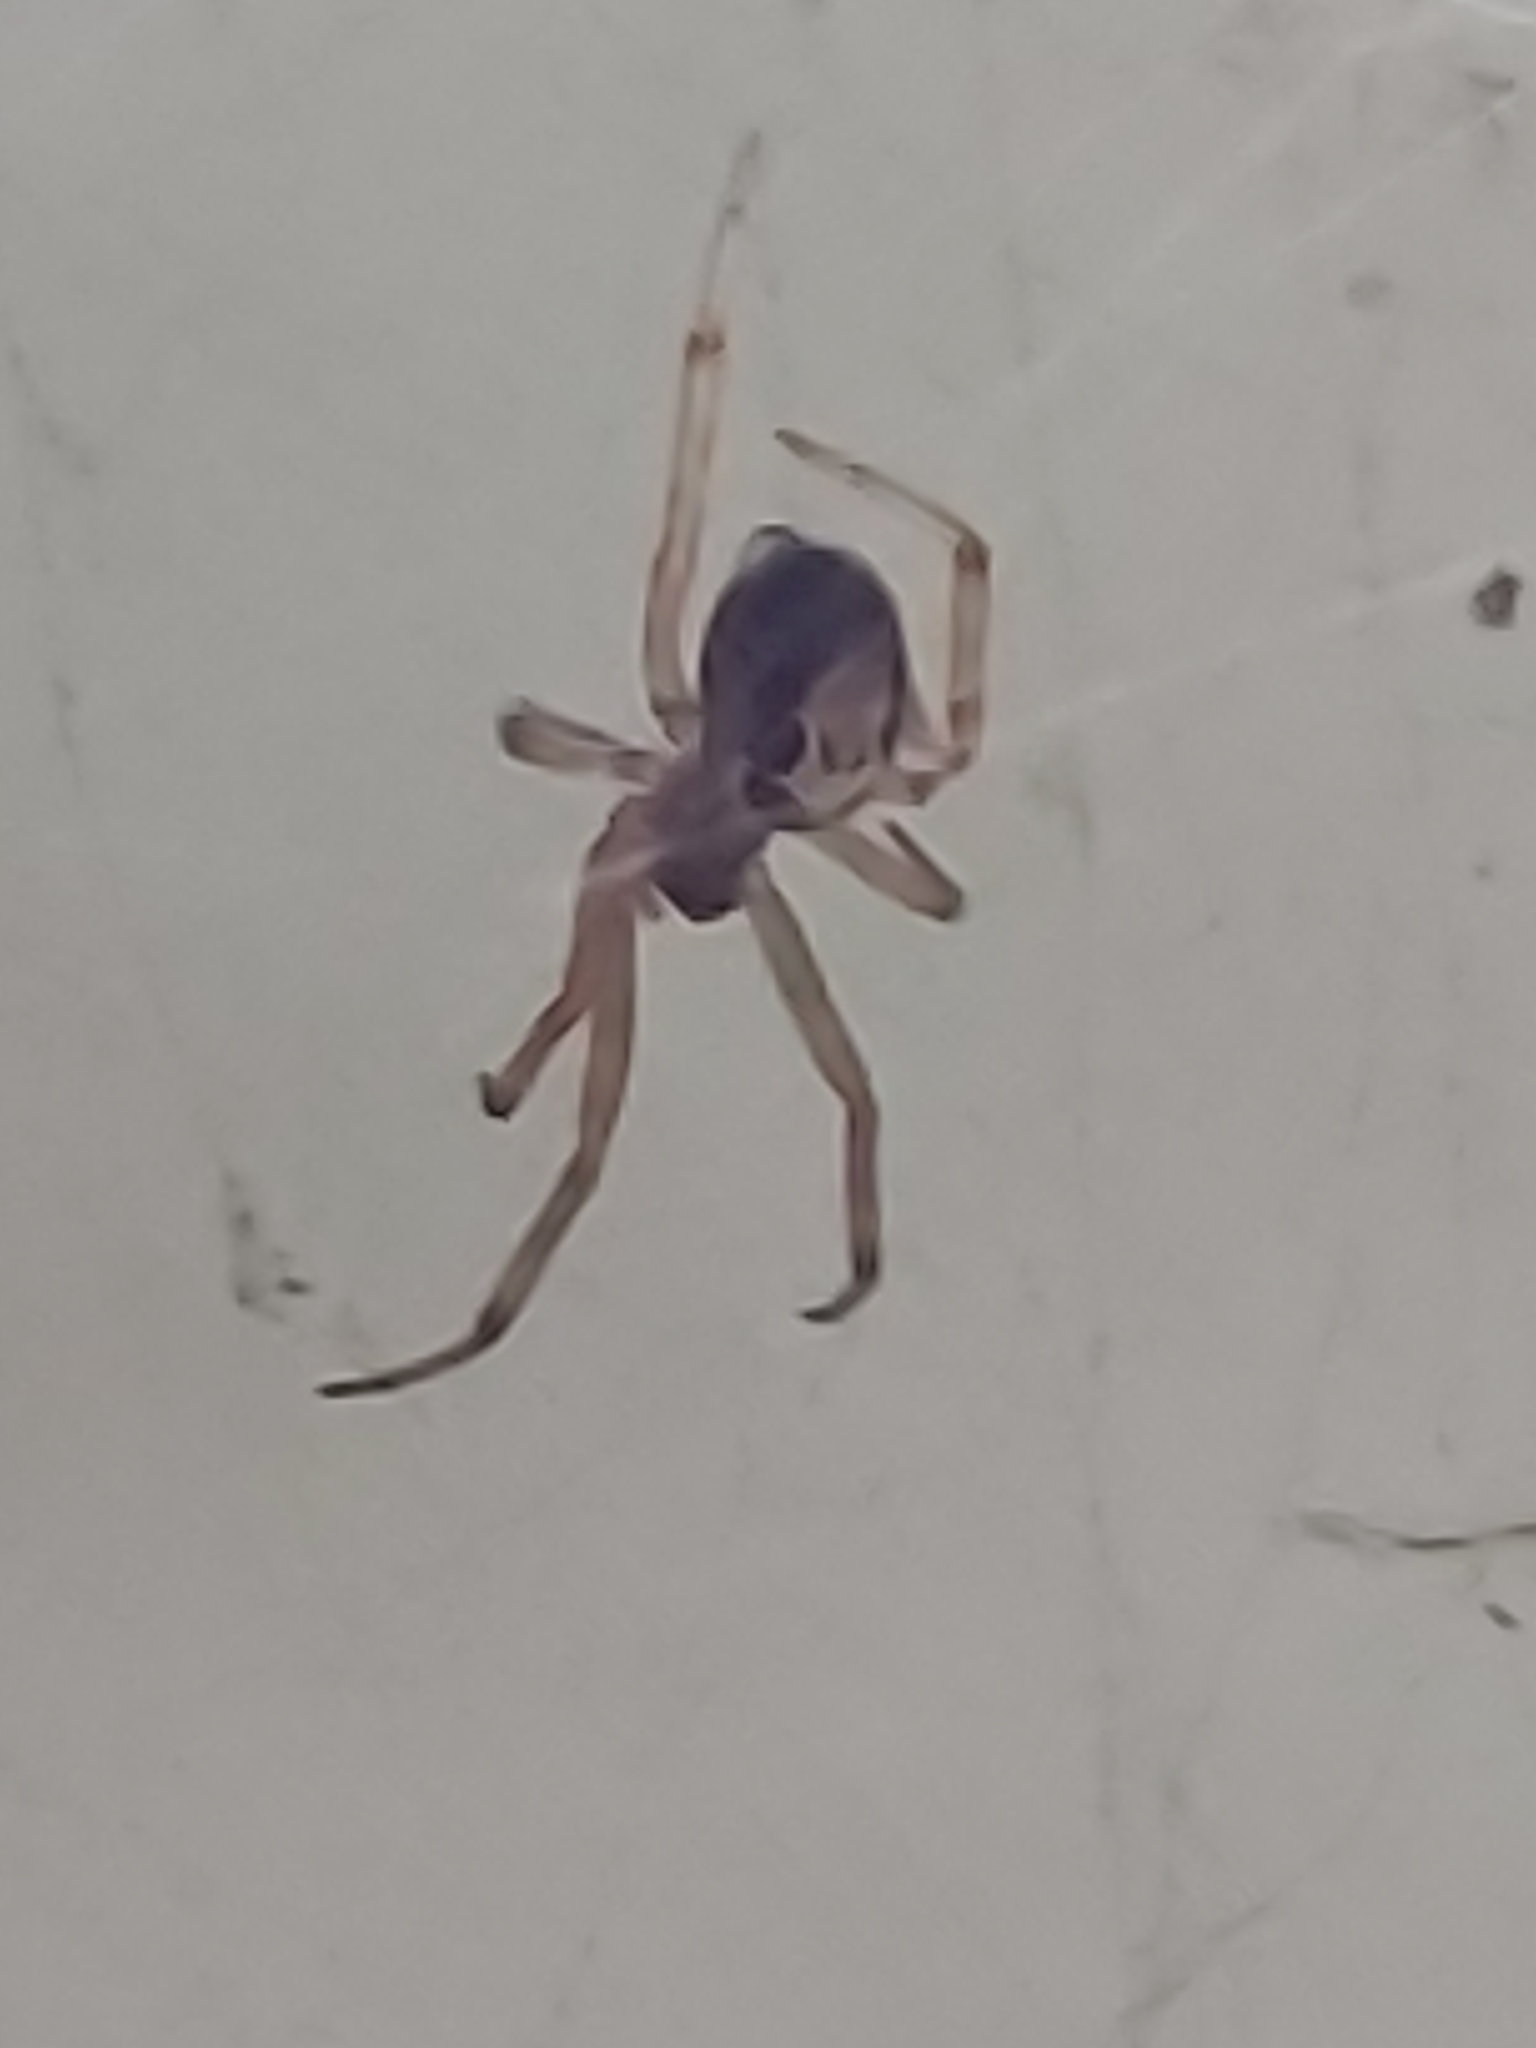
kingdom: Animalia
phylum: Arthropoda
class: Arachnida
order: Araneae
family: Theridiidae
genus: Steatoda
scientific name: Steatoda nobilis
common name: Cobweb weaver
